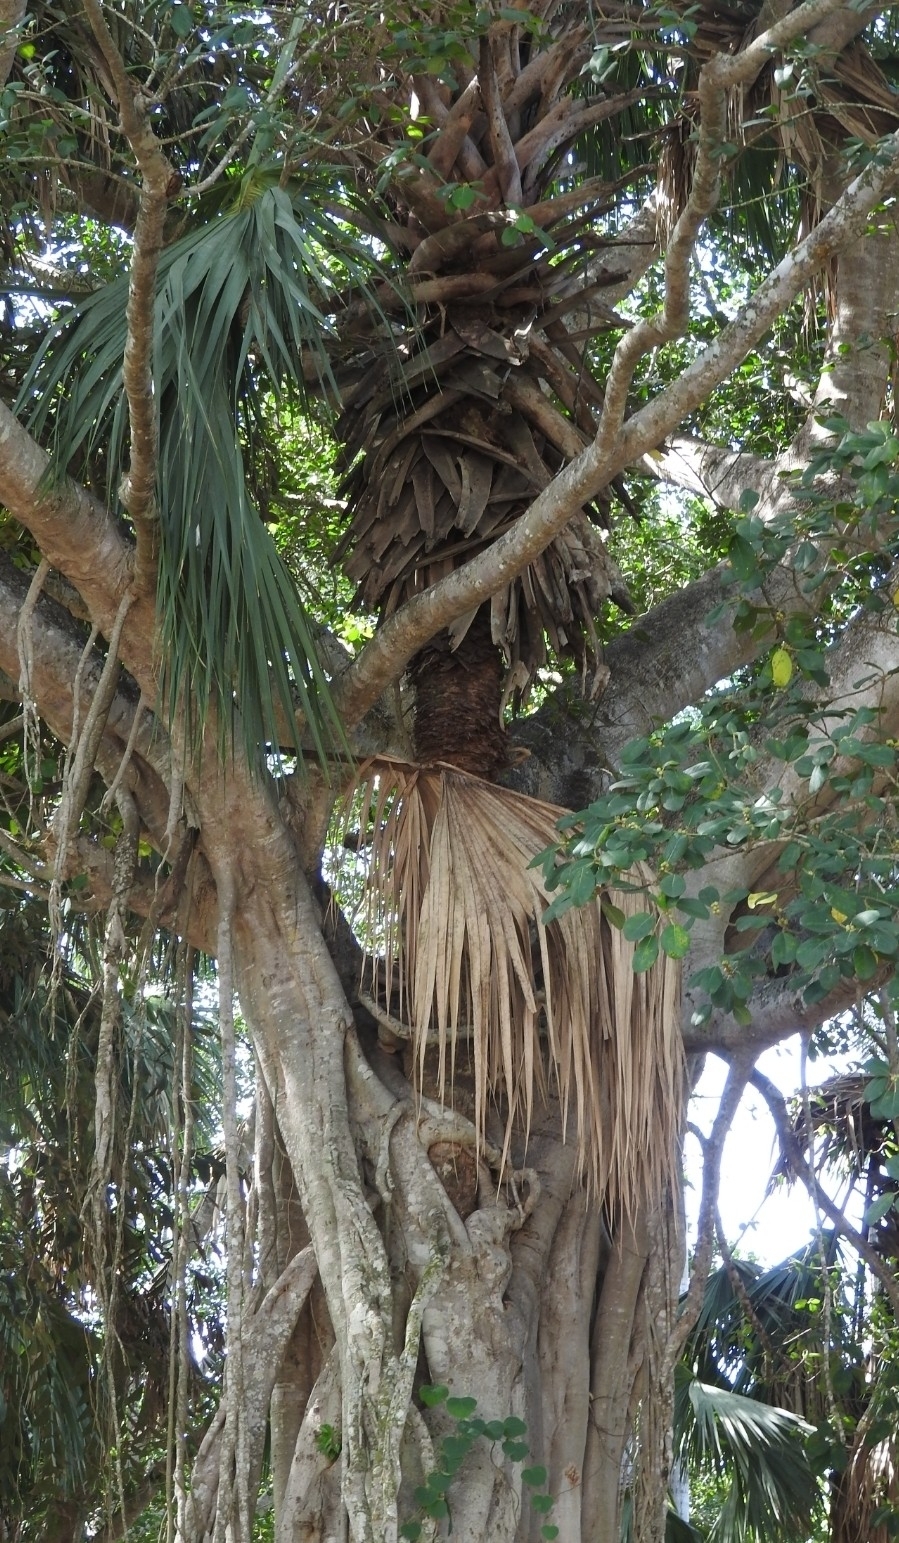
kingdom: Plantae
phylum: Tracheophyta
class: Magnoliopsida
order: Rosales
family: Moraceae
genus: Ficus
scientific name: Ficus aurea
